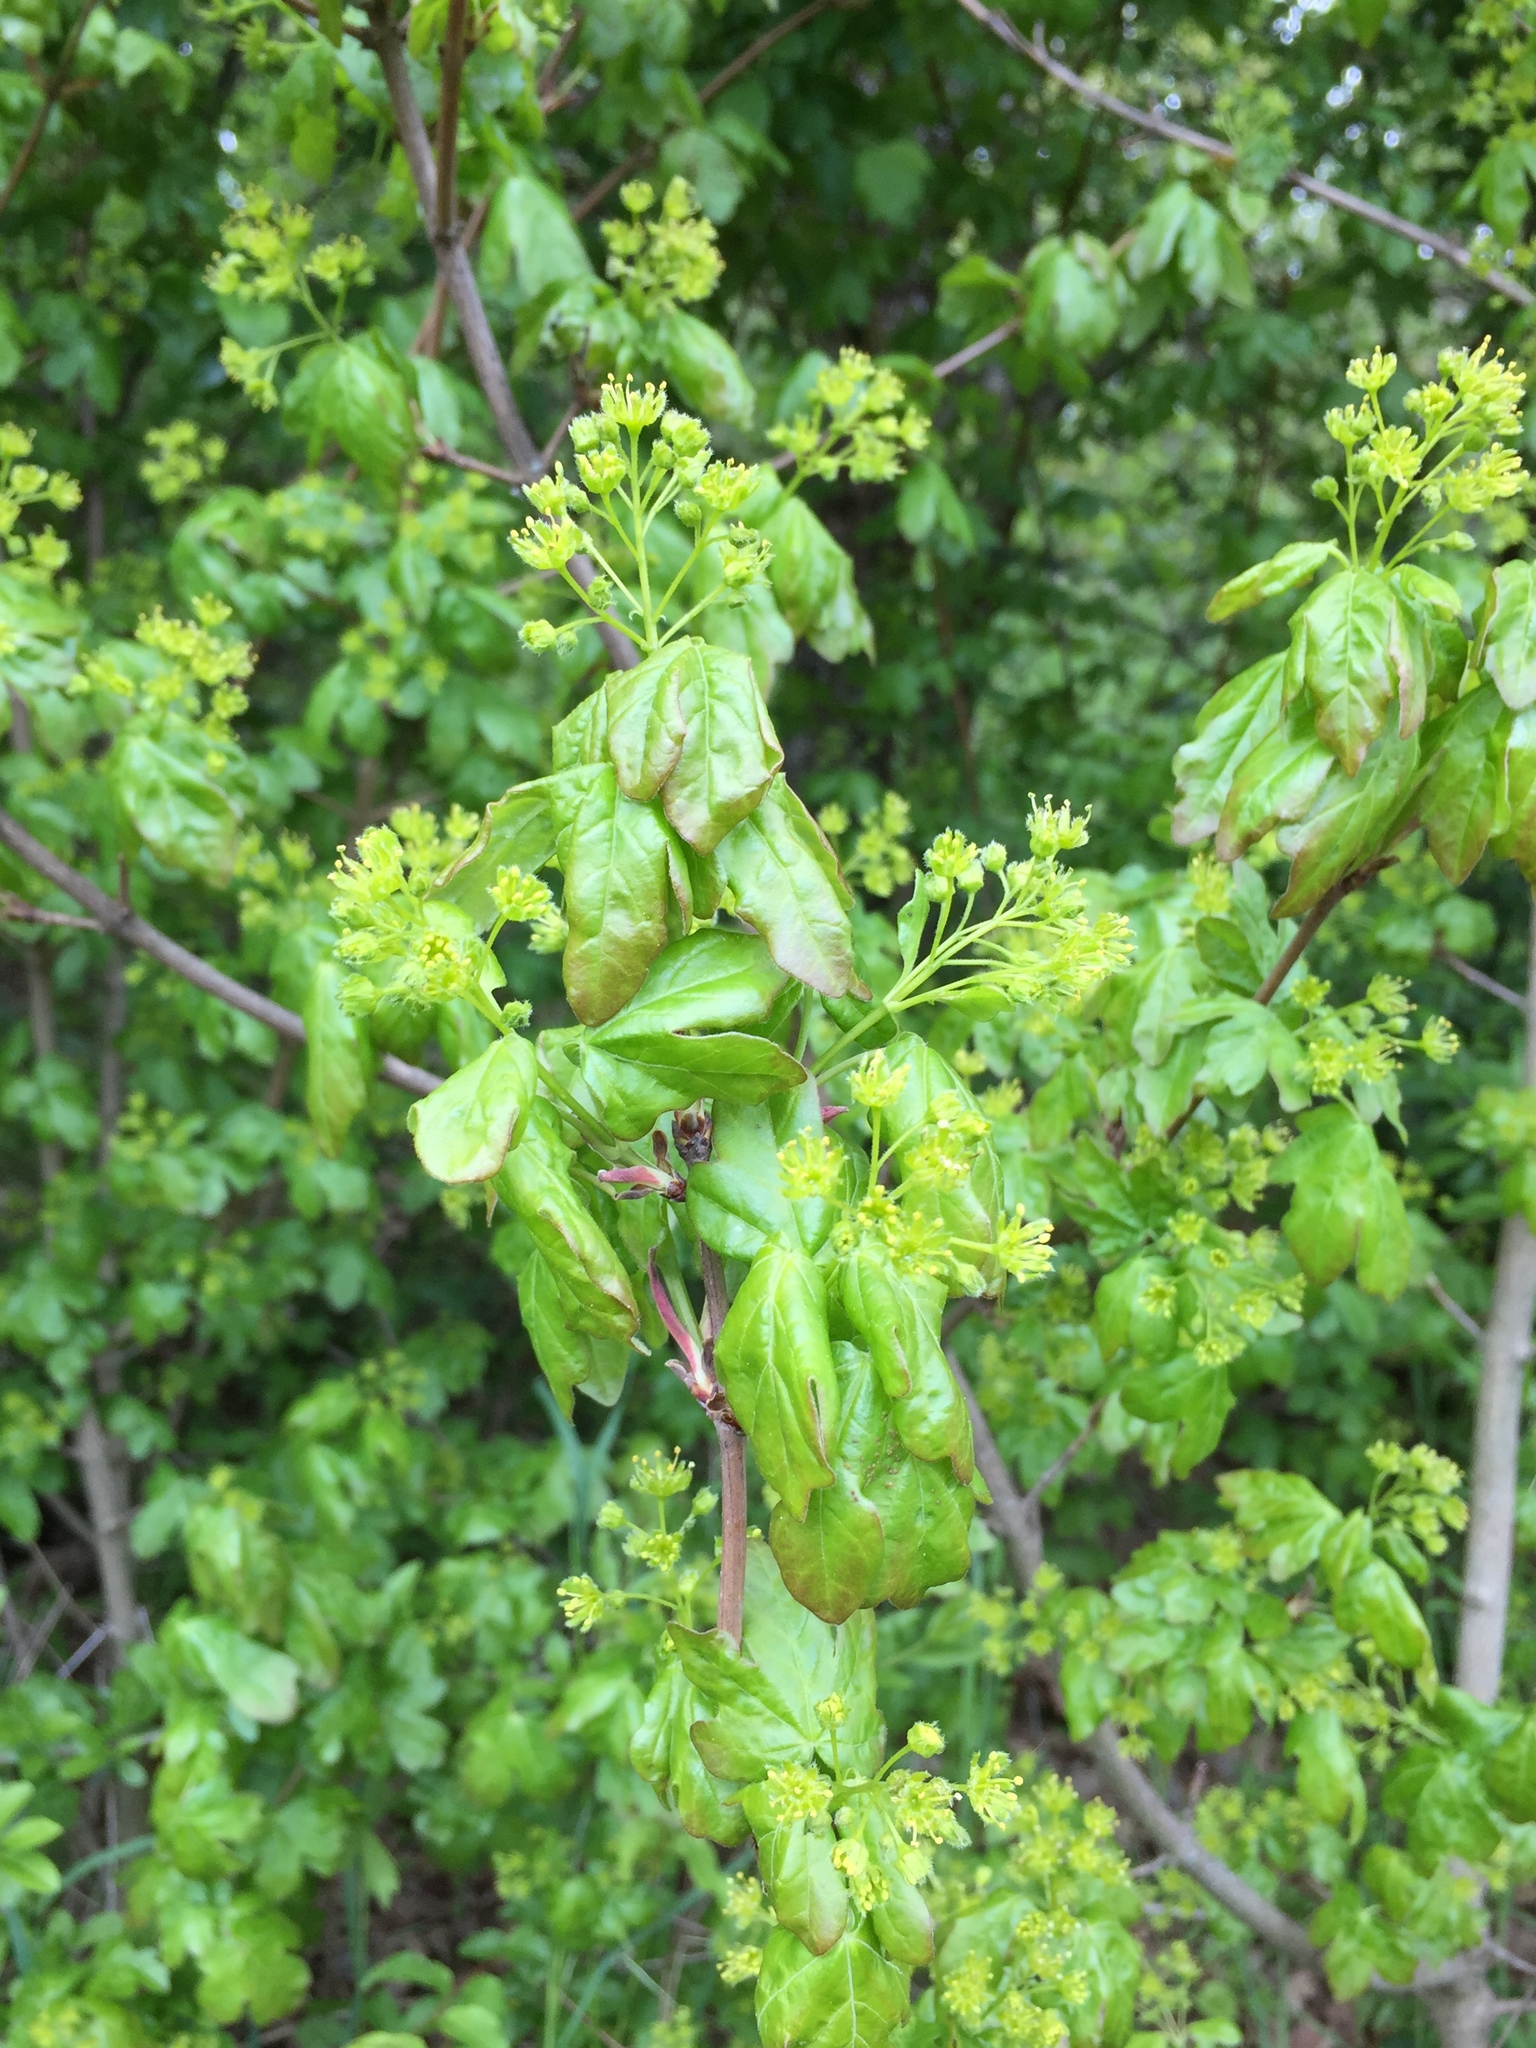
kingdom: Plantae
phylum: Tracheophyta
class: Magnoliopsida
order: Sapindales
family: Sapindaceae
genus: Acer
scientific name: Acer campestre
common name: Field maple
